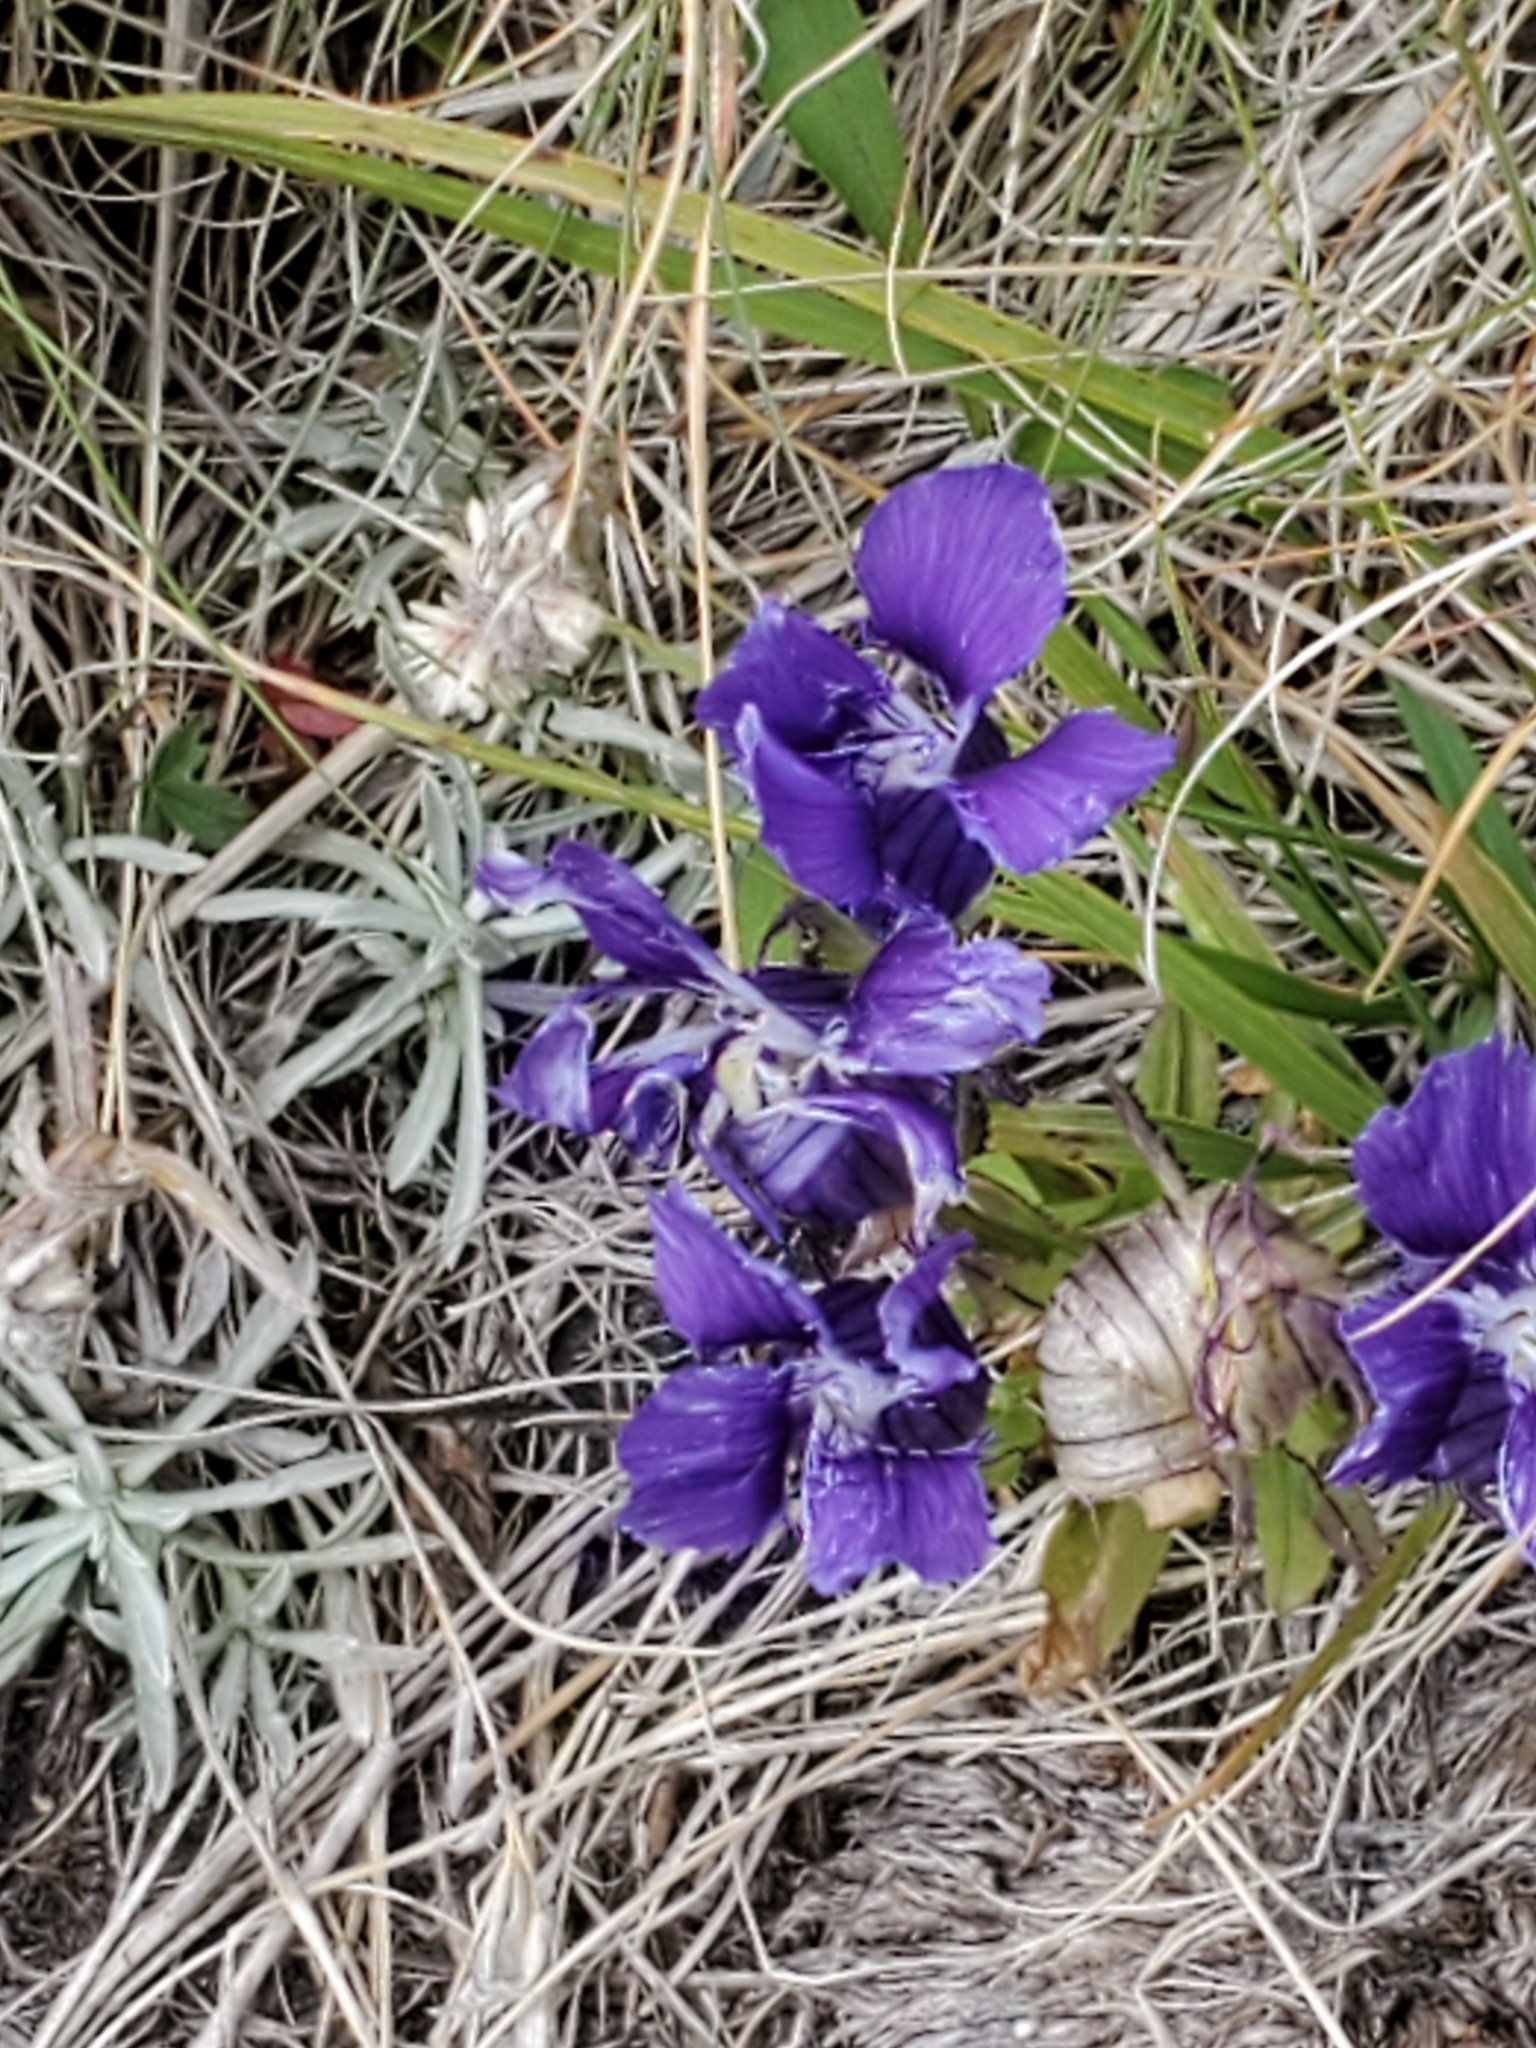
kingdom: Plantae
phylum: Tracheophyta
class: Magnoliopsida
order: Gentianales
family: Gentianaceae
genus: Gentianopsis
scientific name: Gentianopsis thermalis
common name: Rocky mountain fringed-gentian
